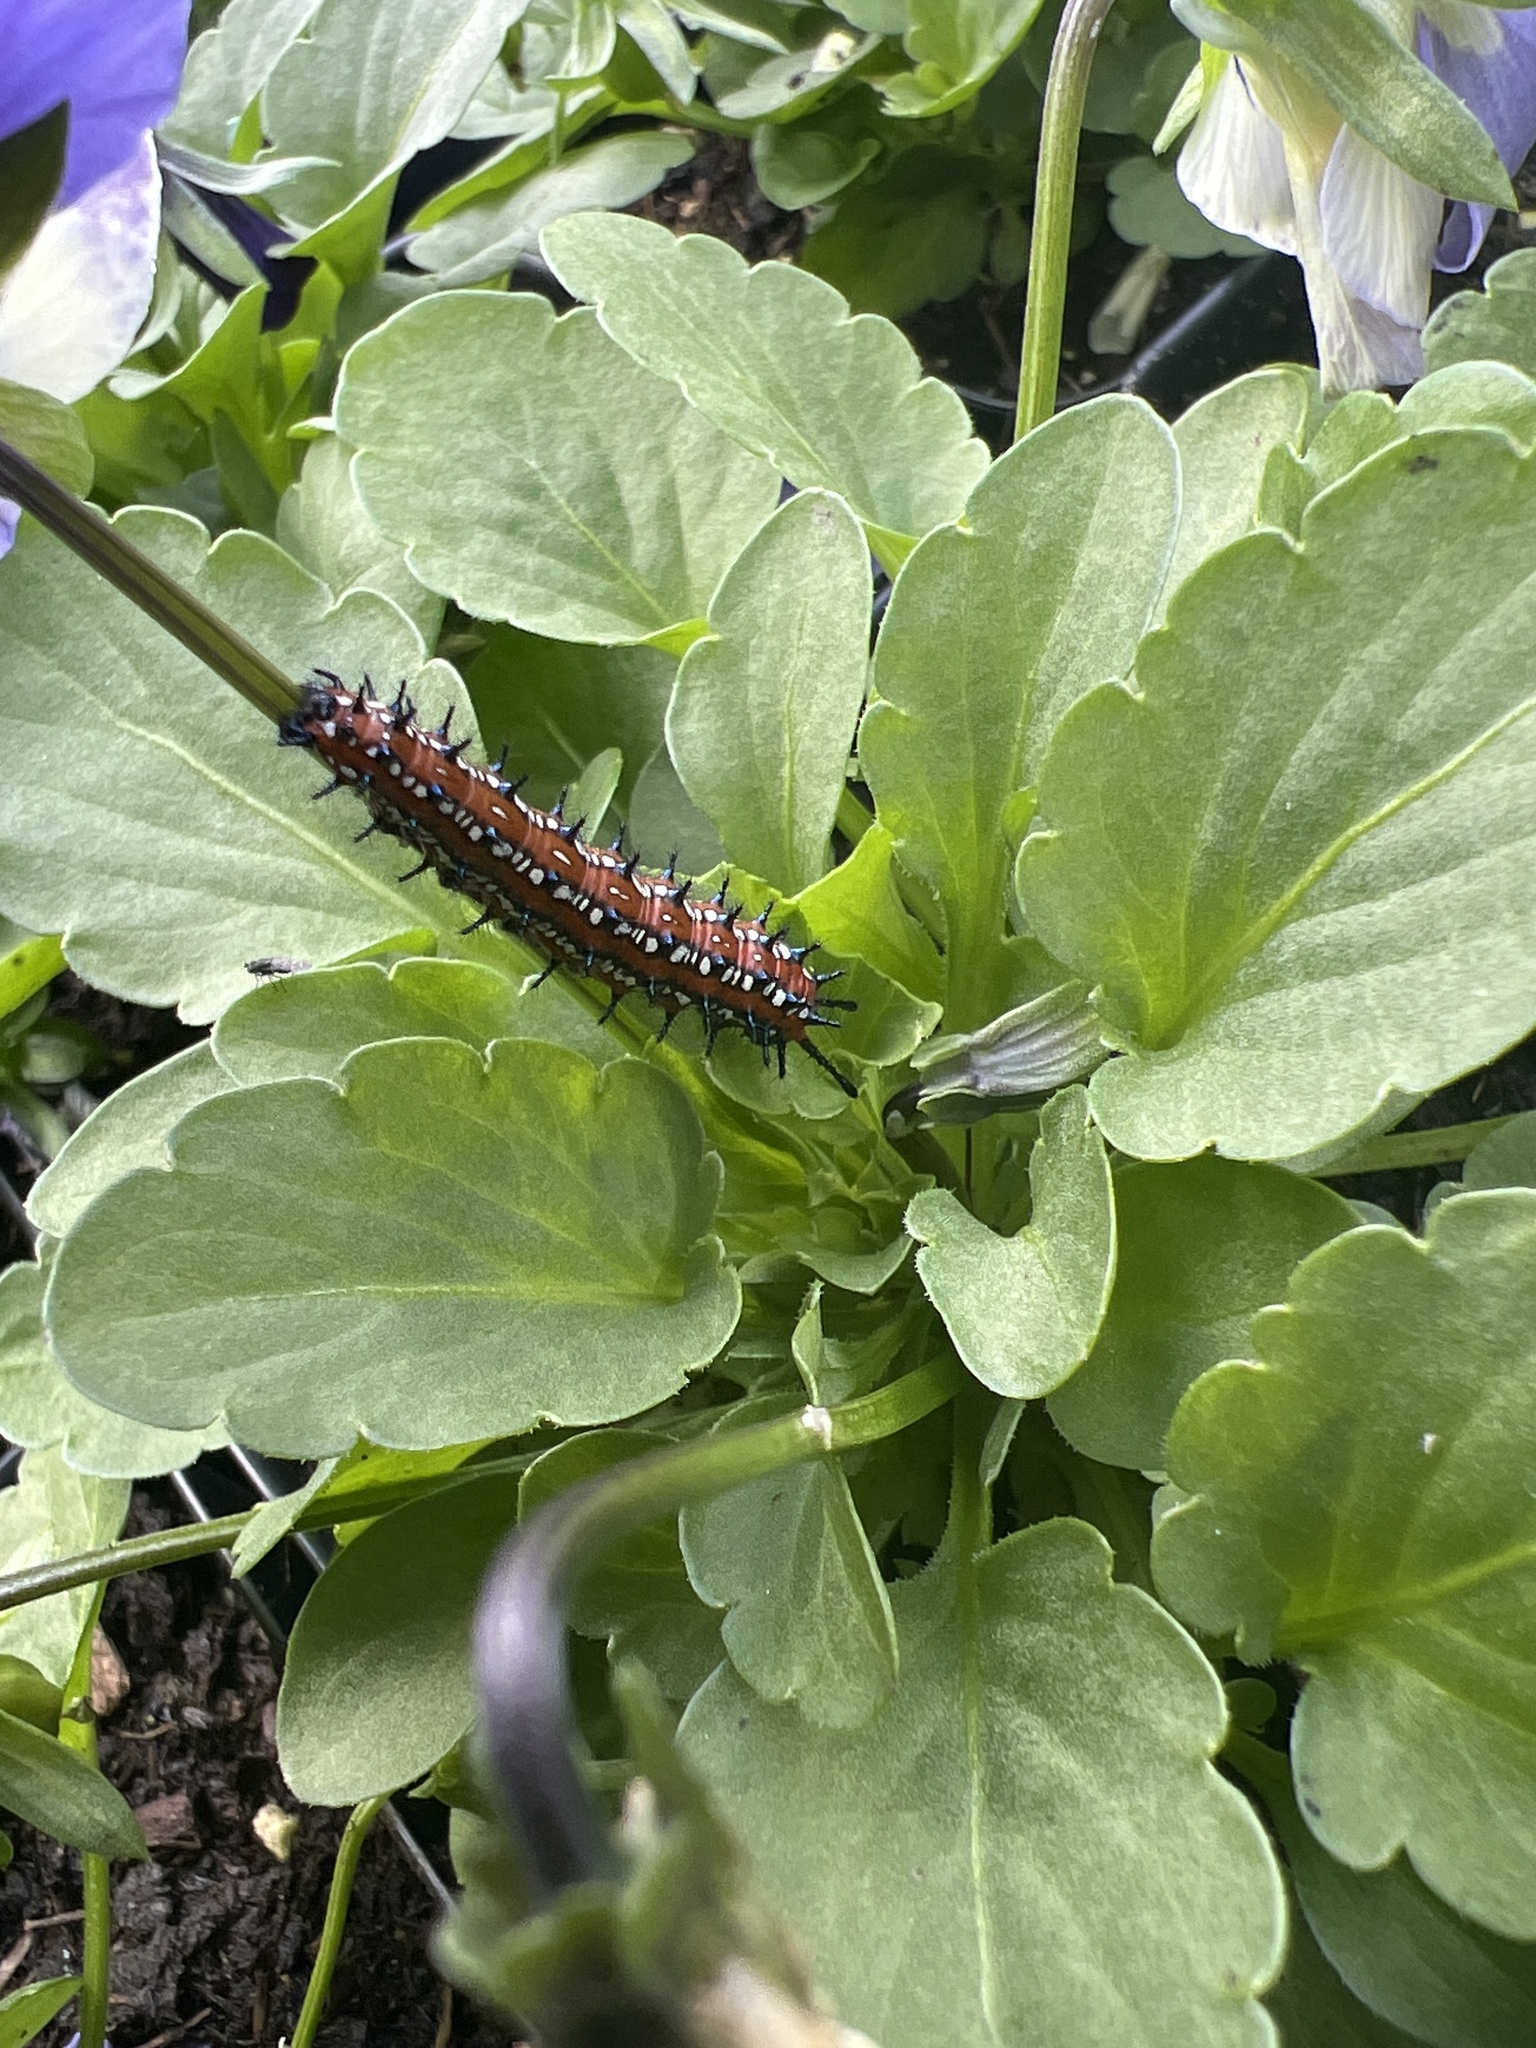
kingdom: Animalia
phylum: Arthropoda
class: Insecta
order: Lepidoptera
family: Nymphalidae
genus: Euptoieta
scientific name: Euptoieta claudia
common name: Variegated fritillary
